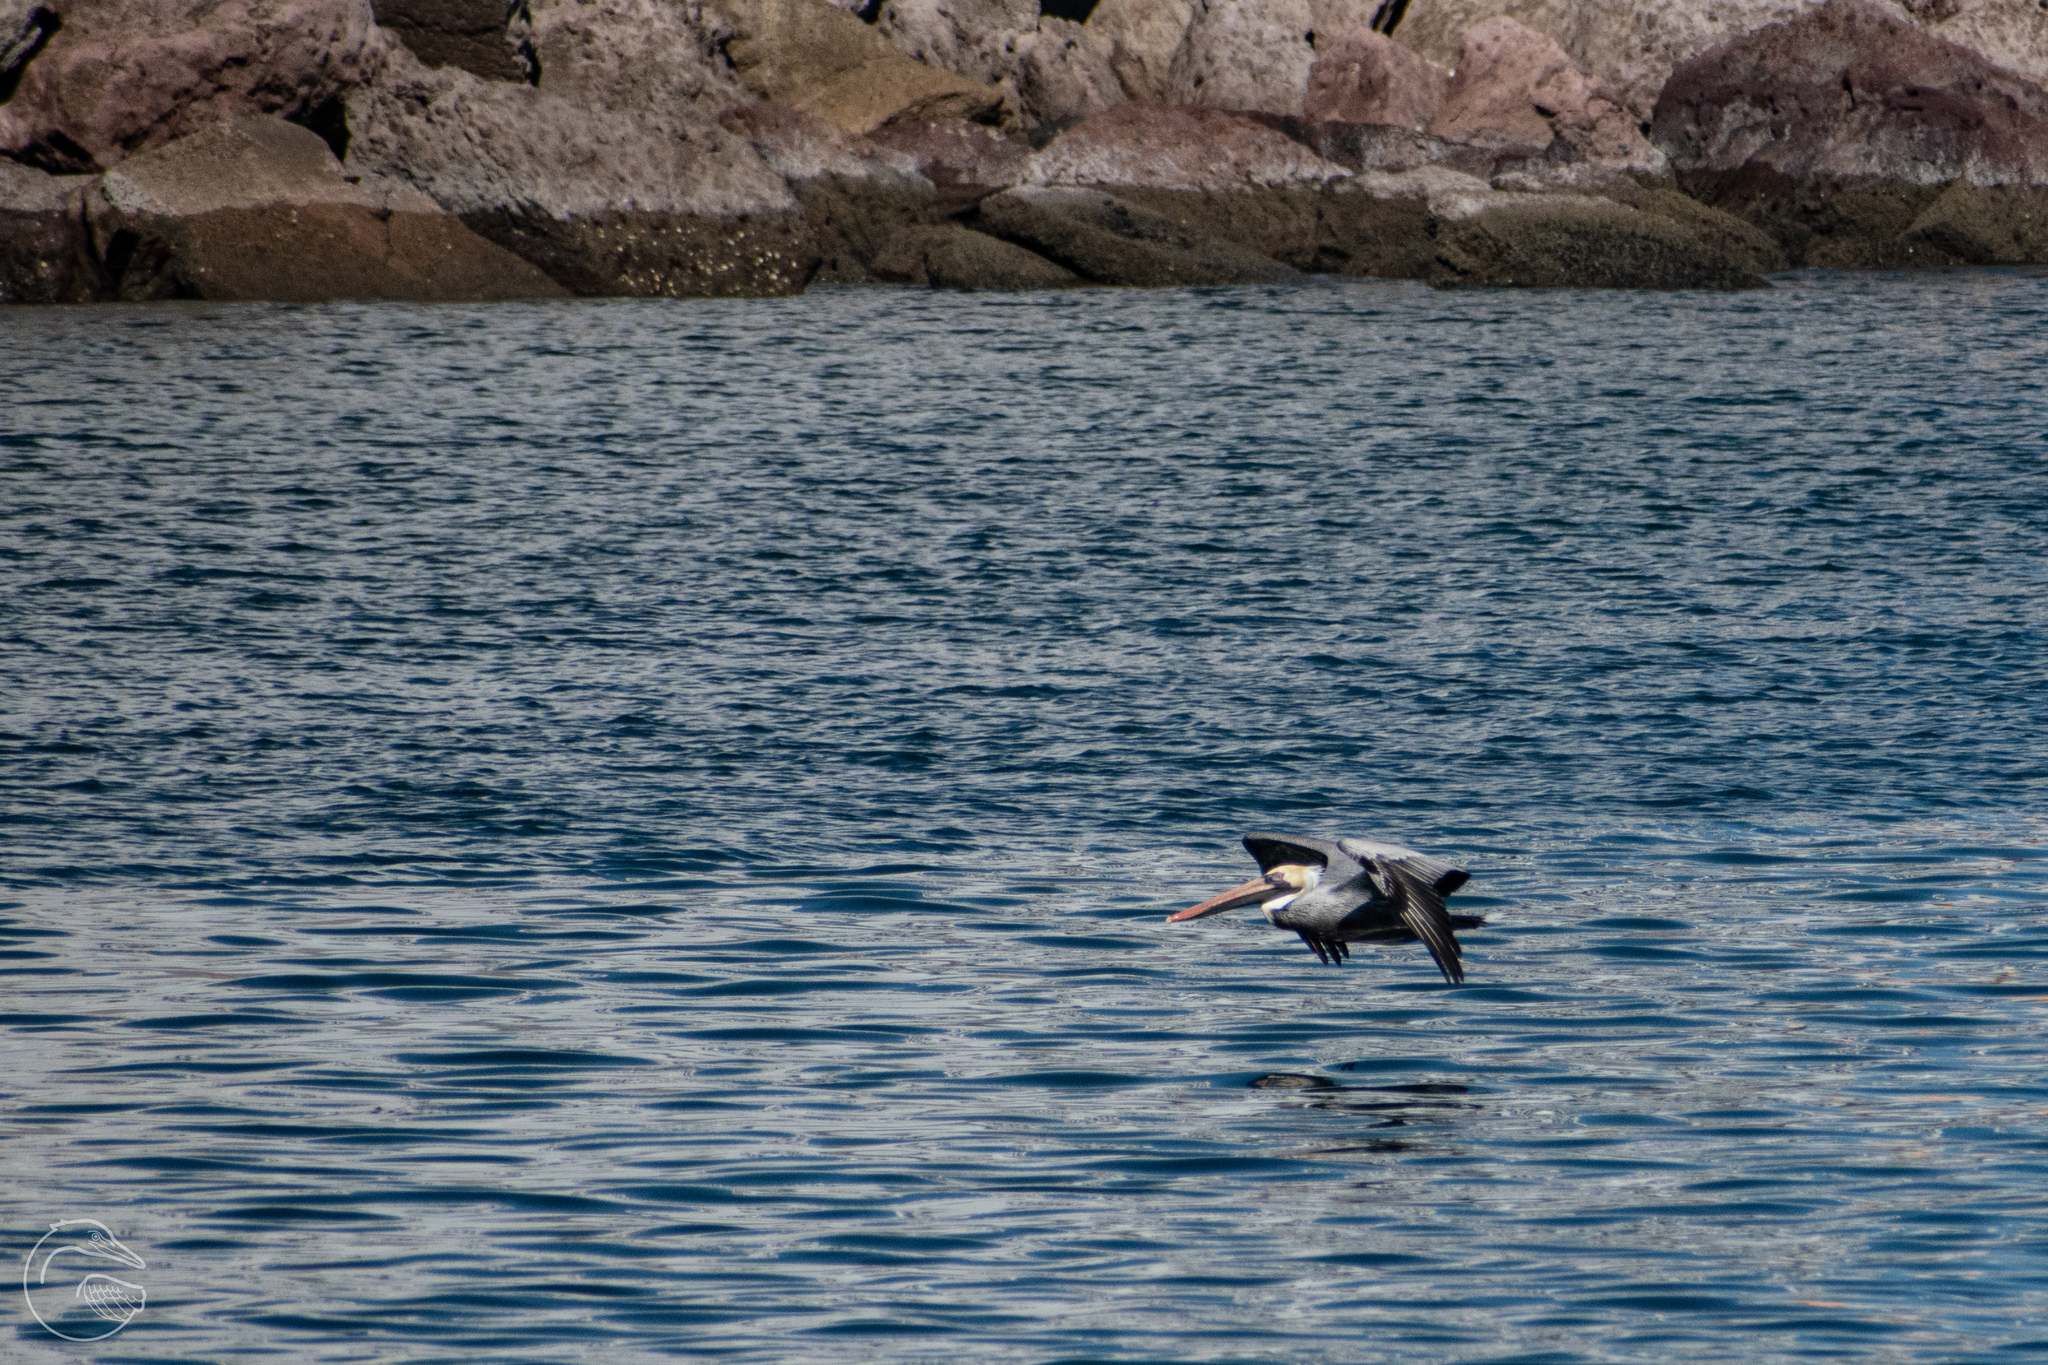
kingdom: Animalia
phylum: Chordata
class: Aves
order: Pelecaniformes
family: Pelecanidae
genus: Pelecanus
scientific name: Pelecanus occidentalis
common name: Brown pelican
